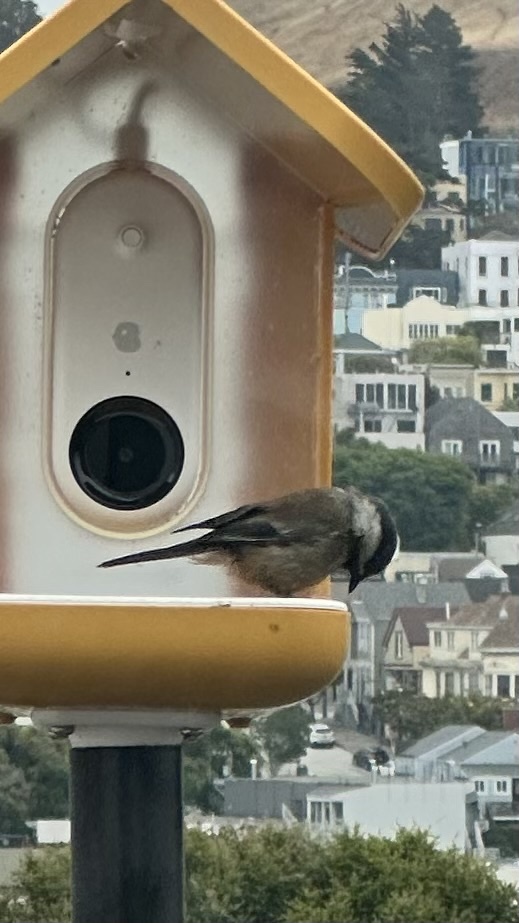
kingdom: Animalia
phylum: Chordata
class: Aves
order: Passeriformes
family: Paridae
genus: Poecile
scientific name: Poecile rufescens
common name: Chestnut-backed chickadee
